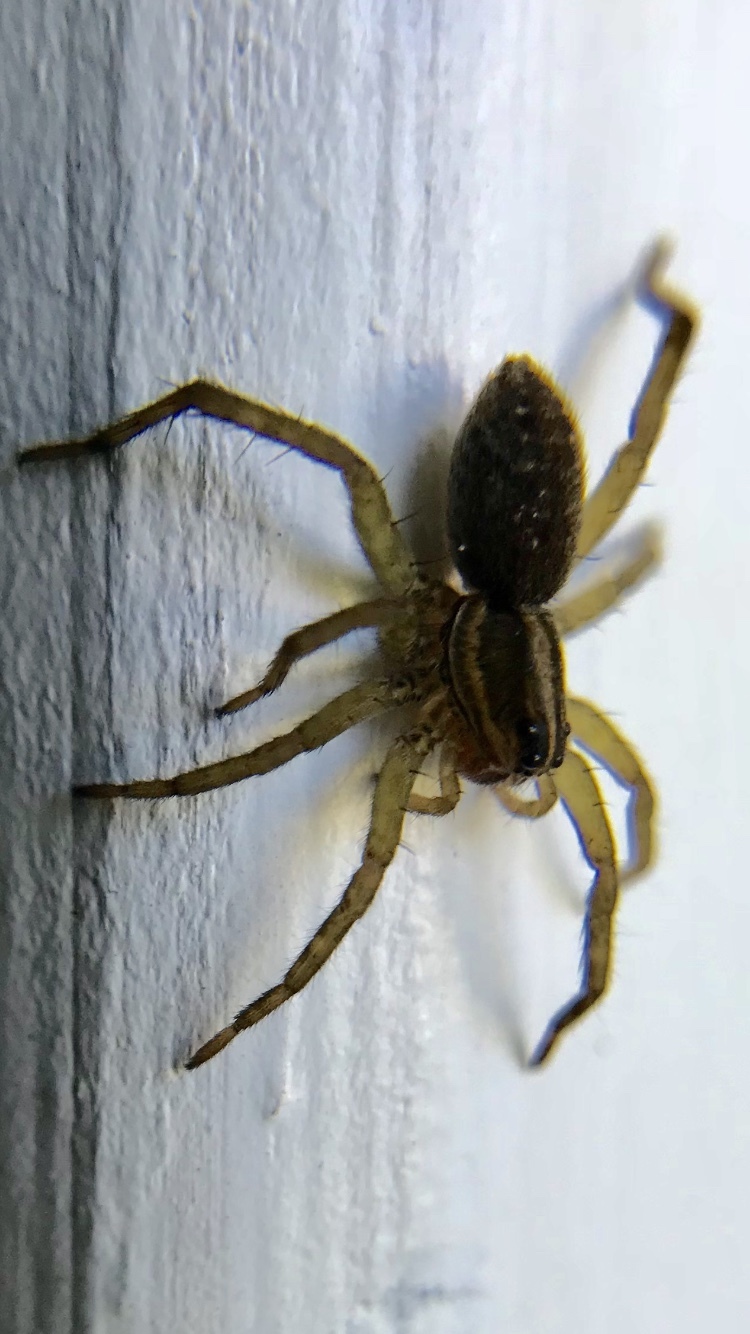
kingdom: Animalia
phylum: Arthropoda
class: Arachnida
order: Araneae
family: Lycosidae
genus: Tigrosa
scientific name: Tigrosa helluo
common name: Wetland giant wolf spider
